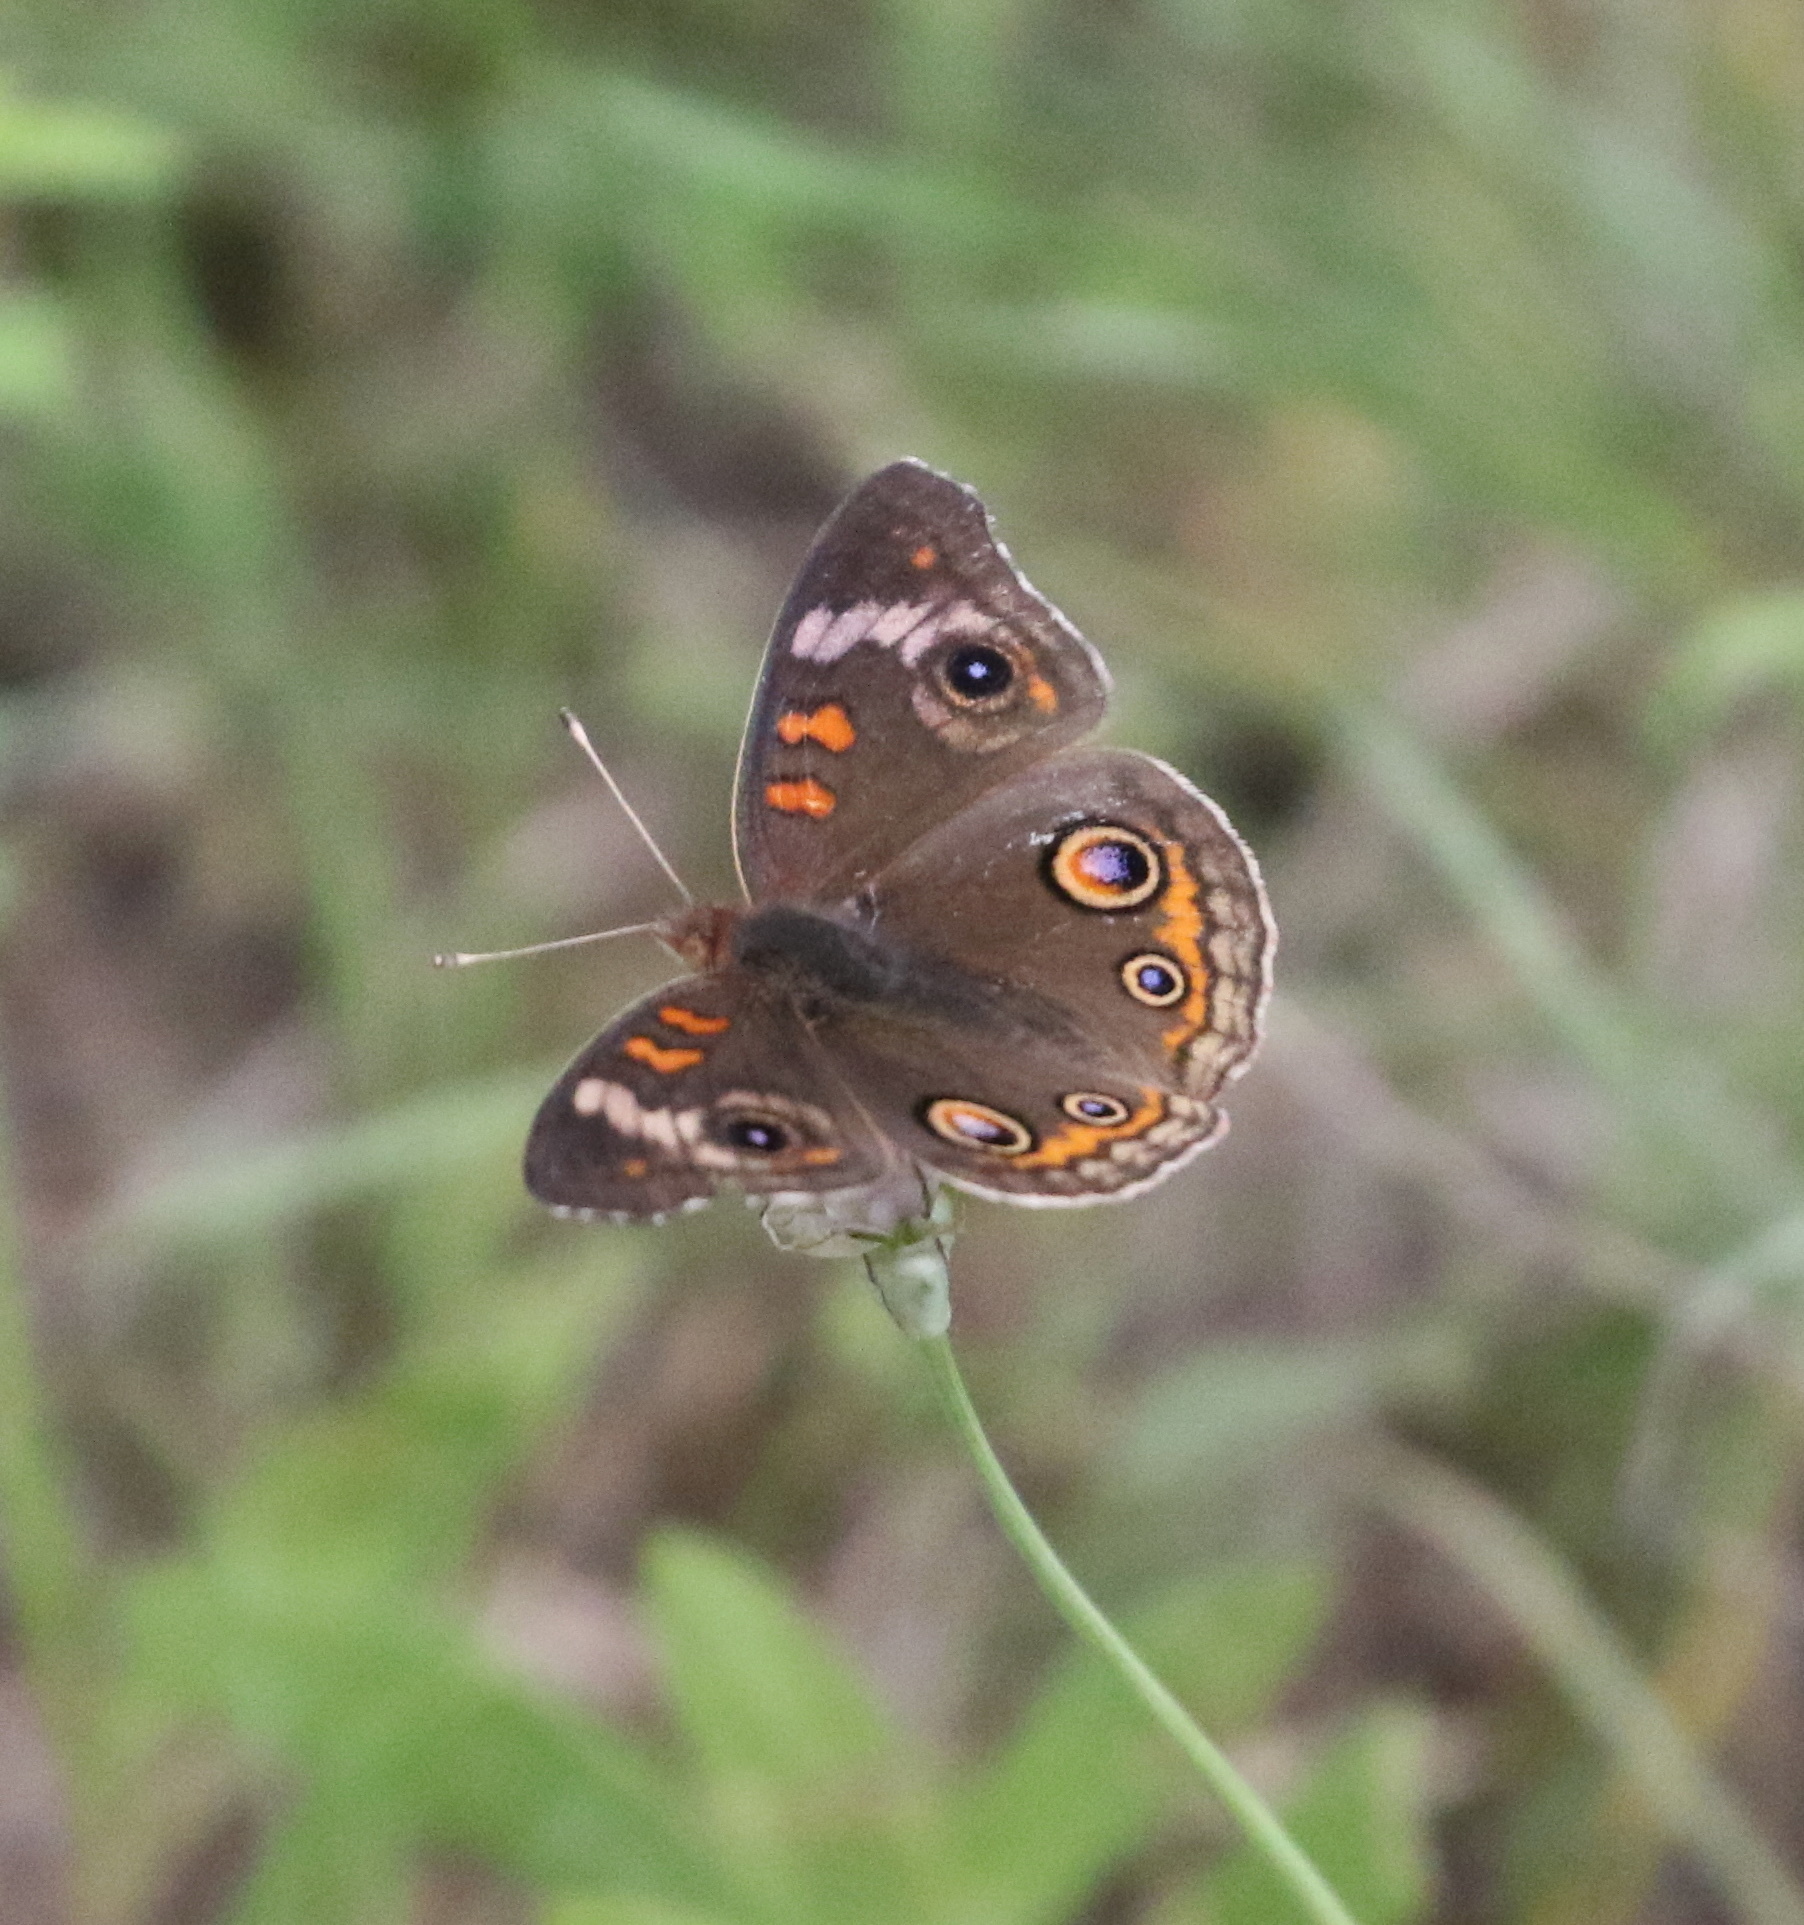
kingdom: Animalia
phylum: Arthropoda
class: Insecta
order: Lepidoptera
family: Nymphalidae
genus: Junonia
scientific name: Junonia coenia
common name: Common buckeye
